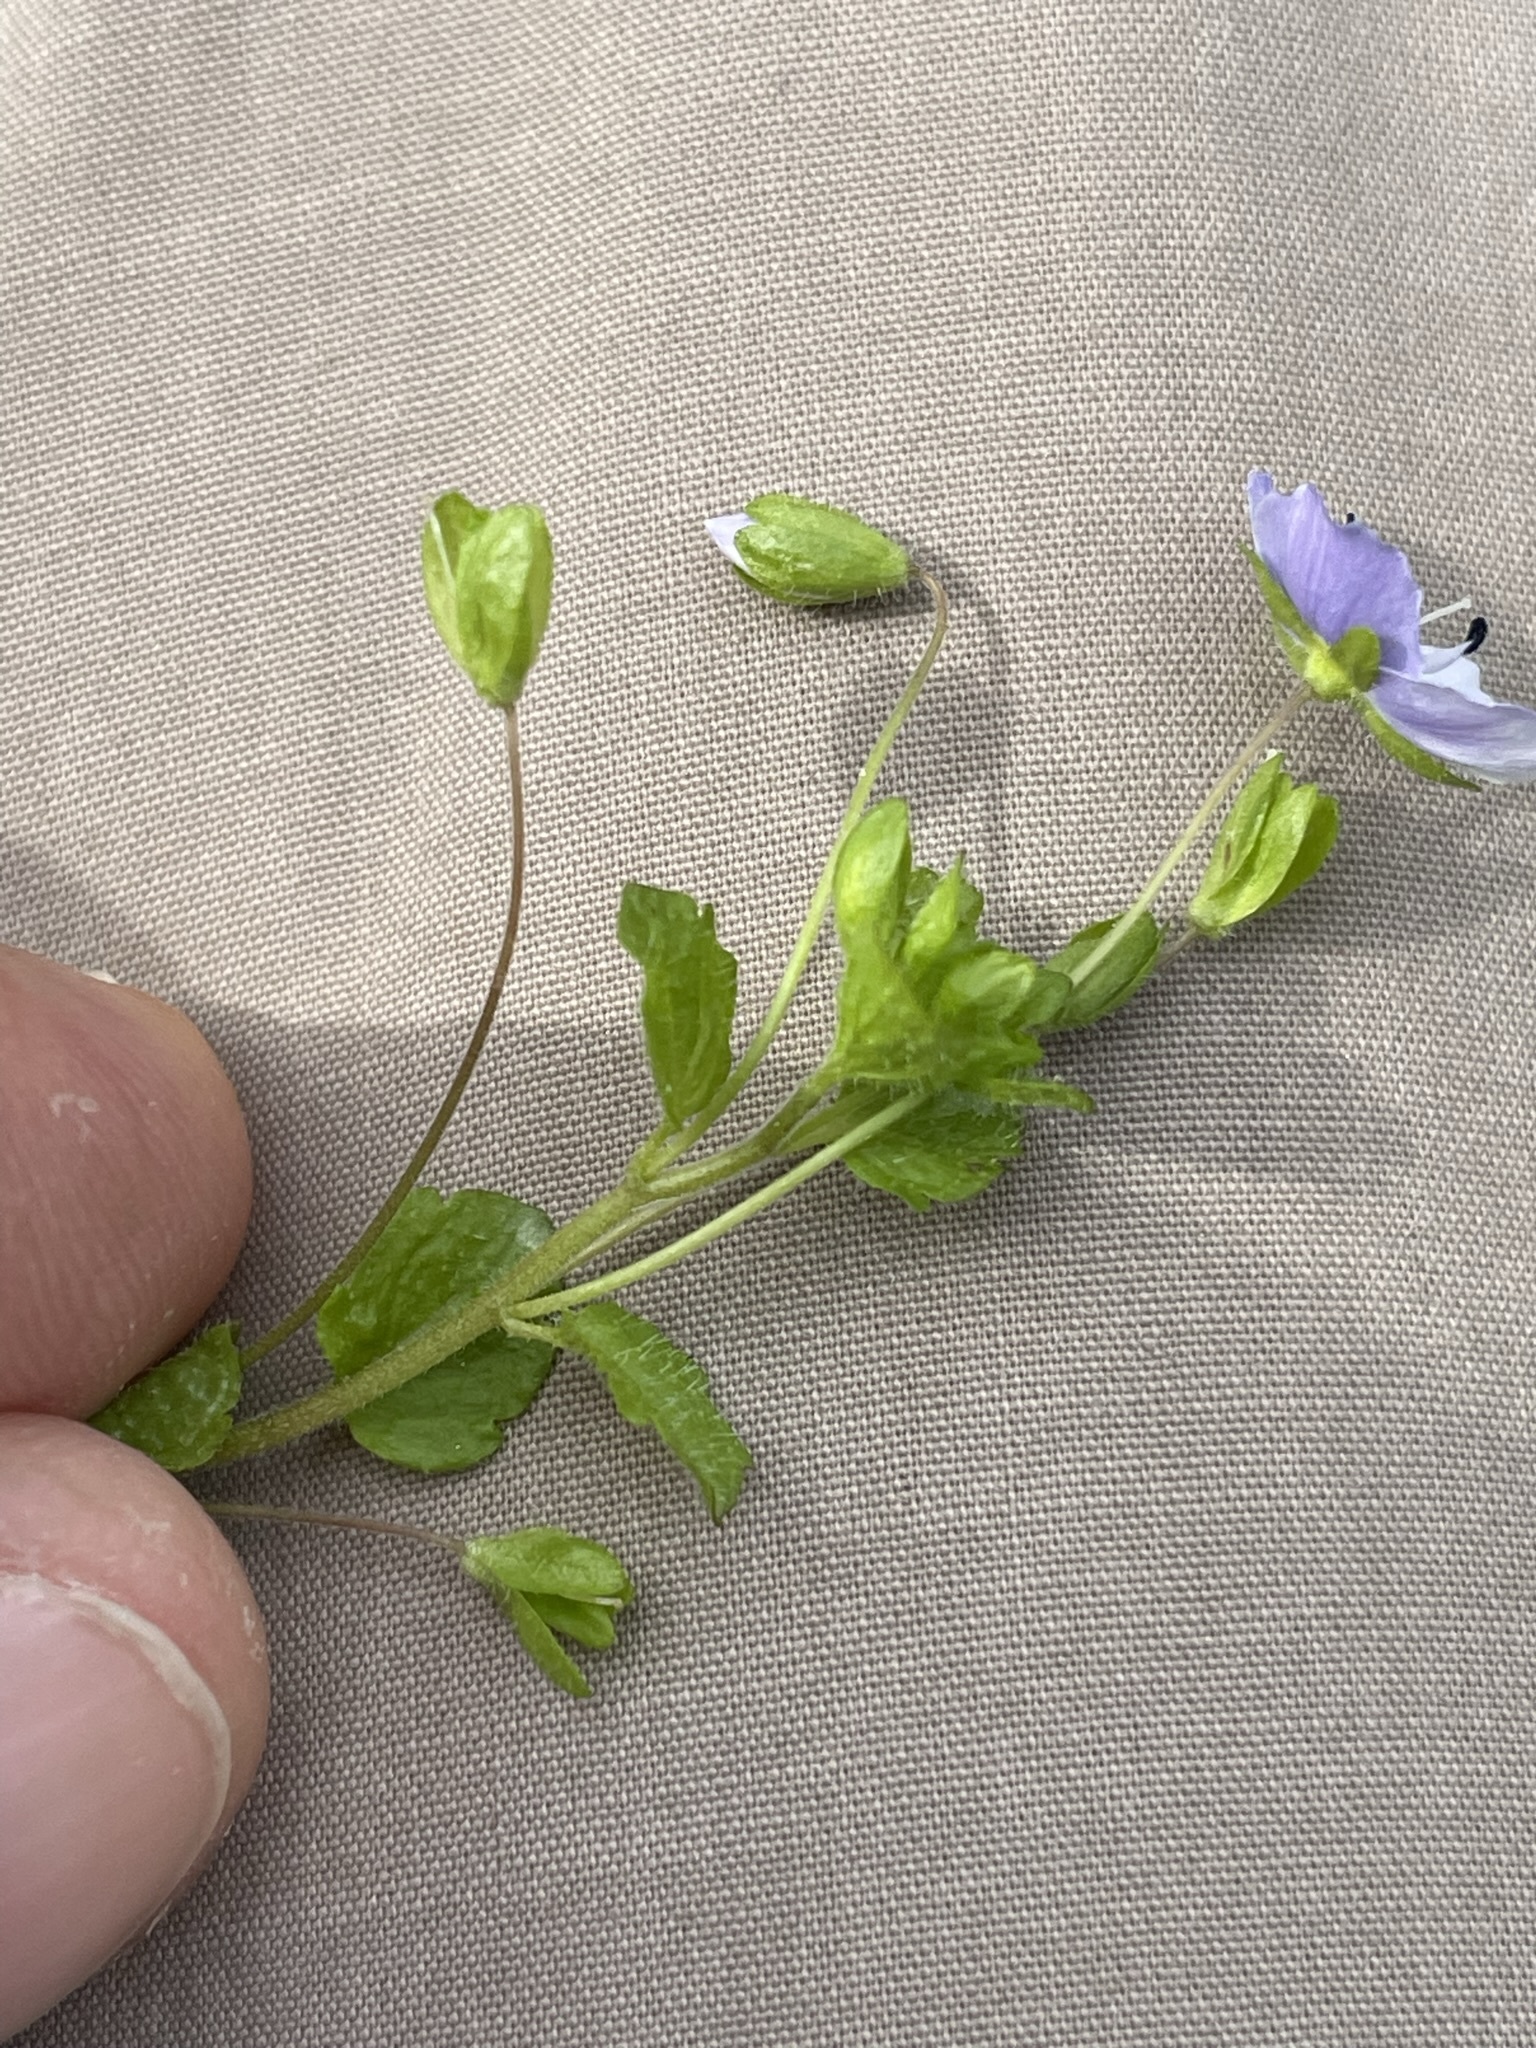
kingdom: Plantae
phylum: Tracheophyta
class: Magnoliopsida
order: Lamiales
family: Plantaginaceae
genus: Veronica
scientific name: Veronica filiformis
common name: Slender speedwell
